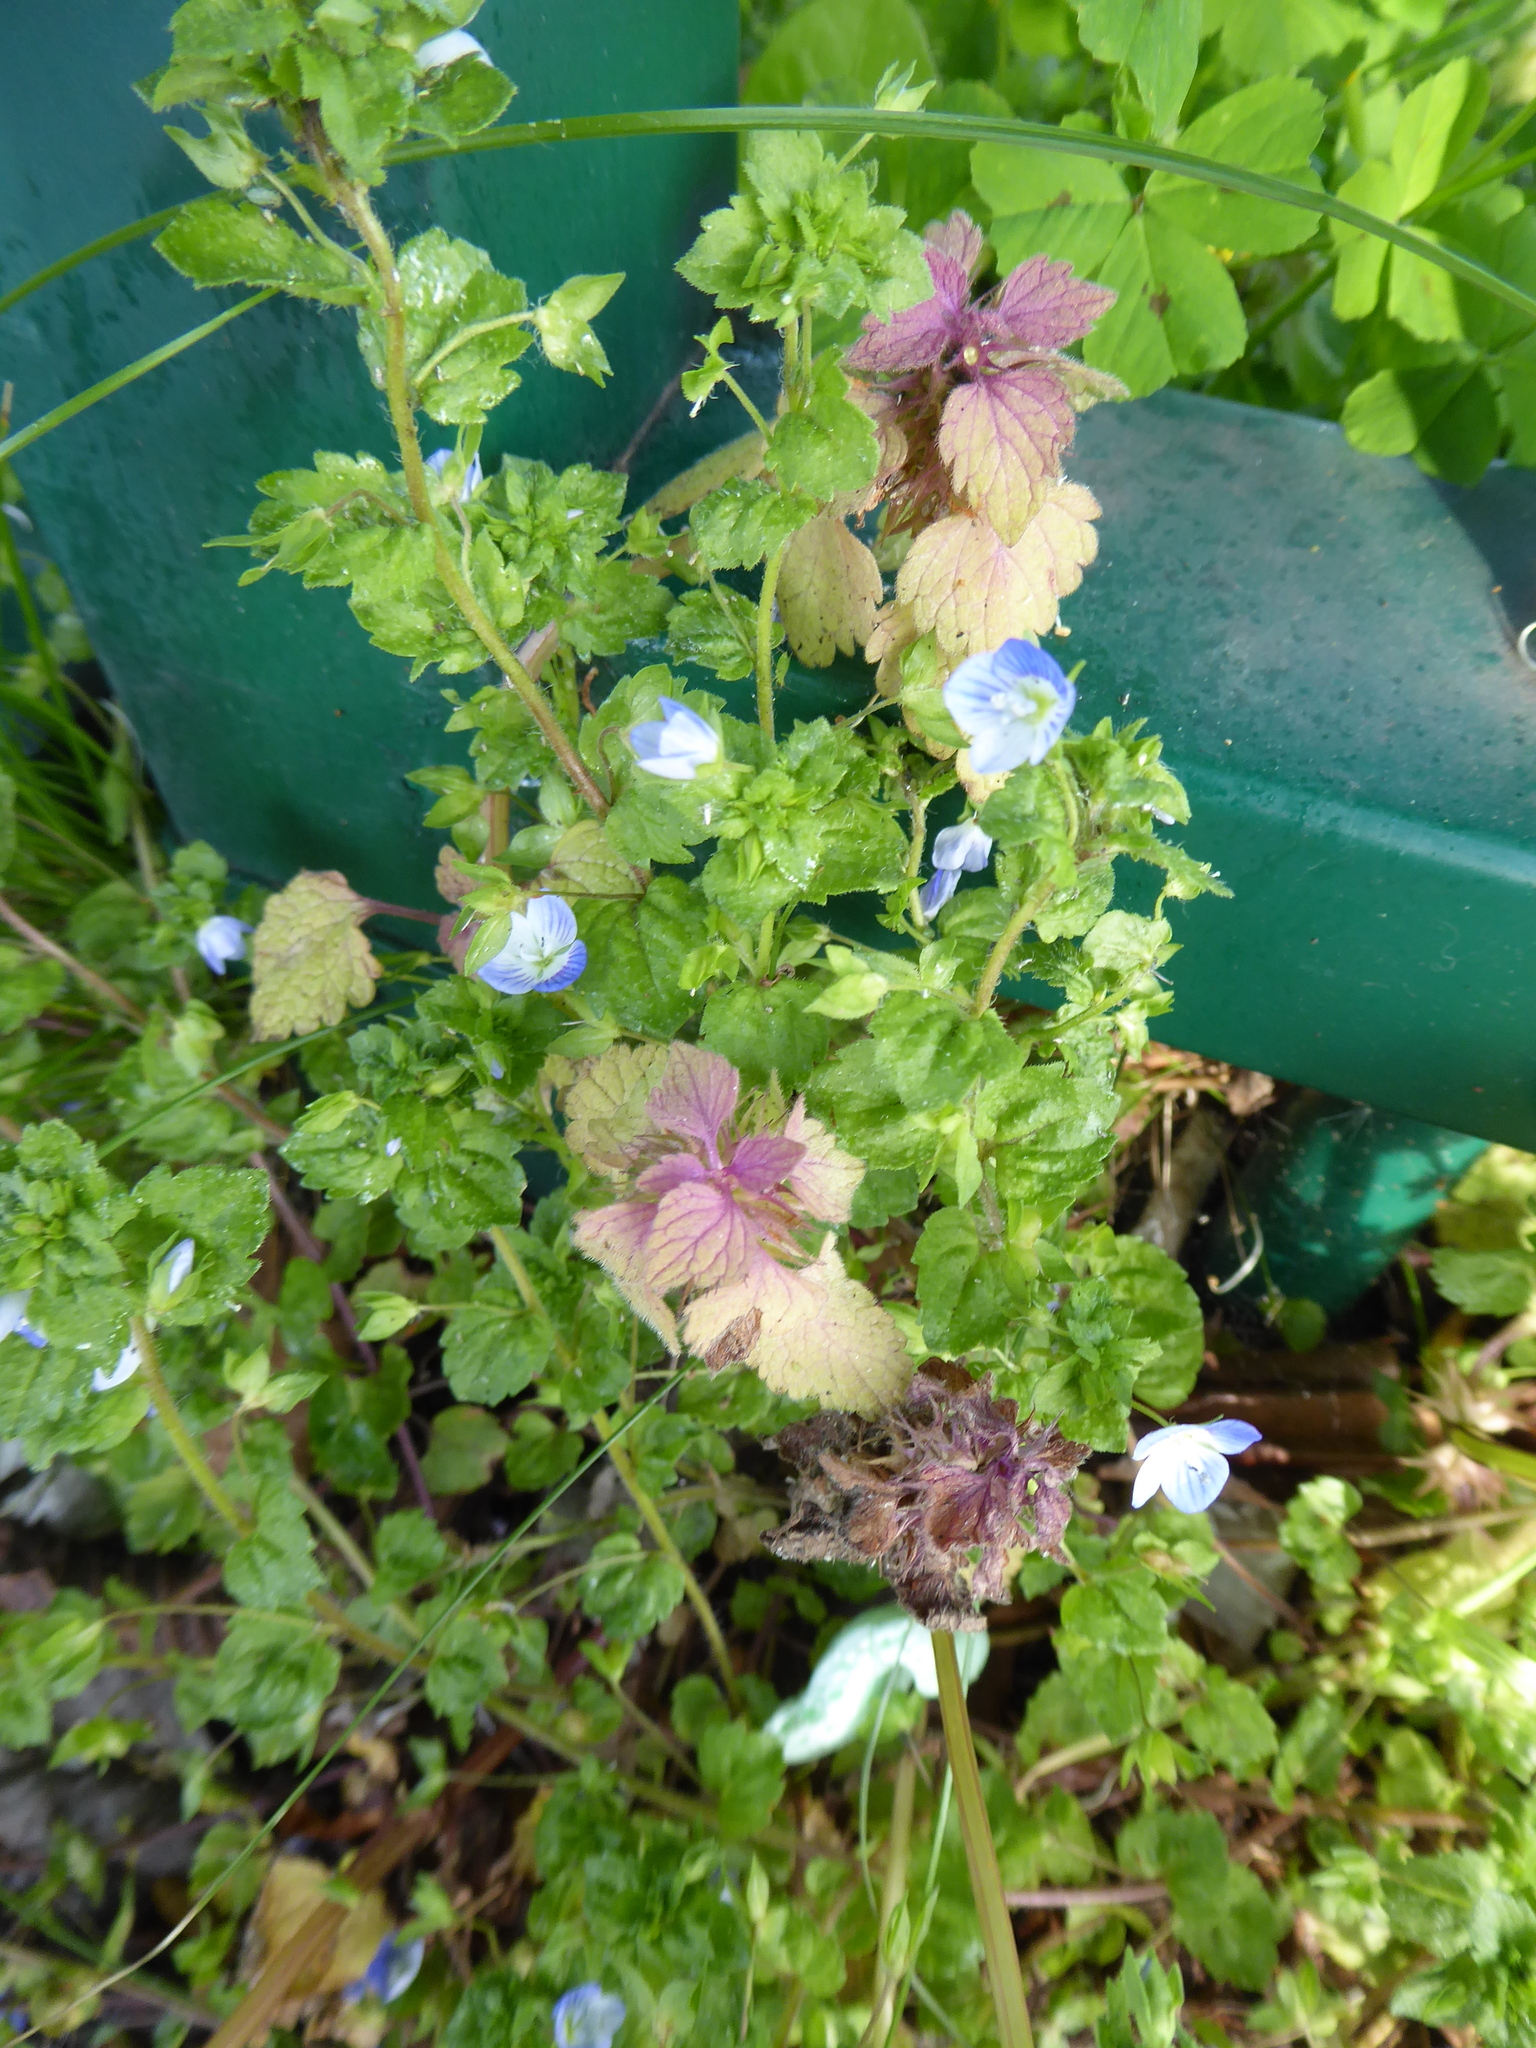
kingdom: Plantae
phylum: Tracheophyta
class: Magnoliopsida
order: Lamiales
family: Plantaginaceae
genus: Veronica
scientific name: Veronica persica
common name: Common field-speedwell
